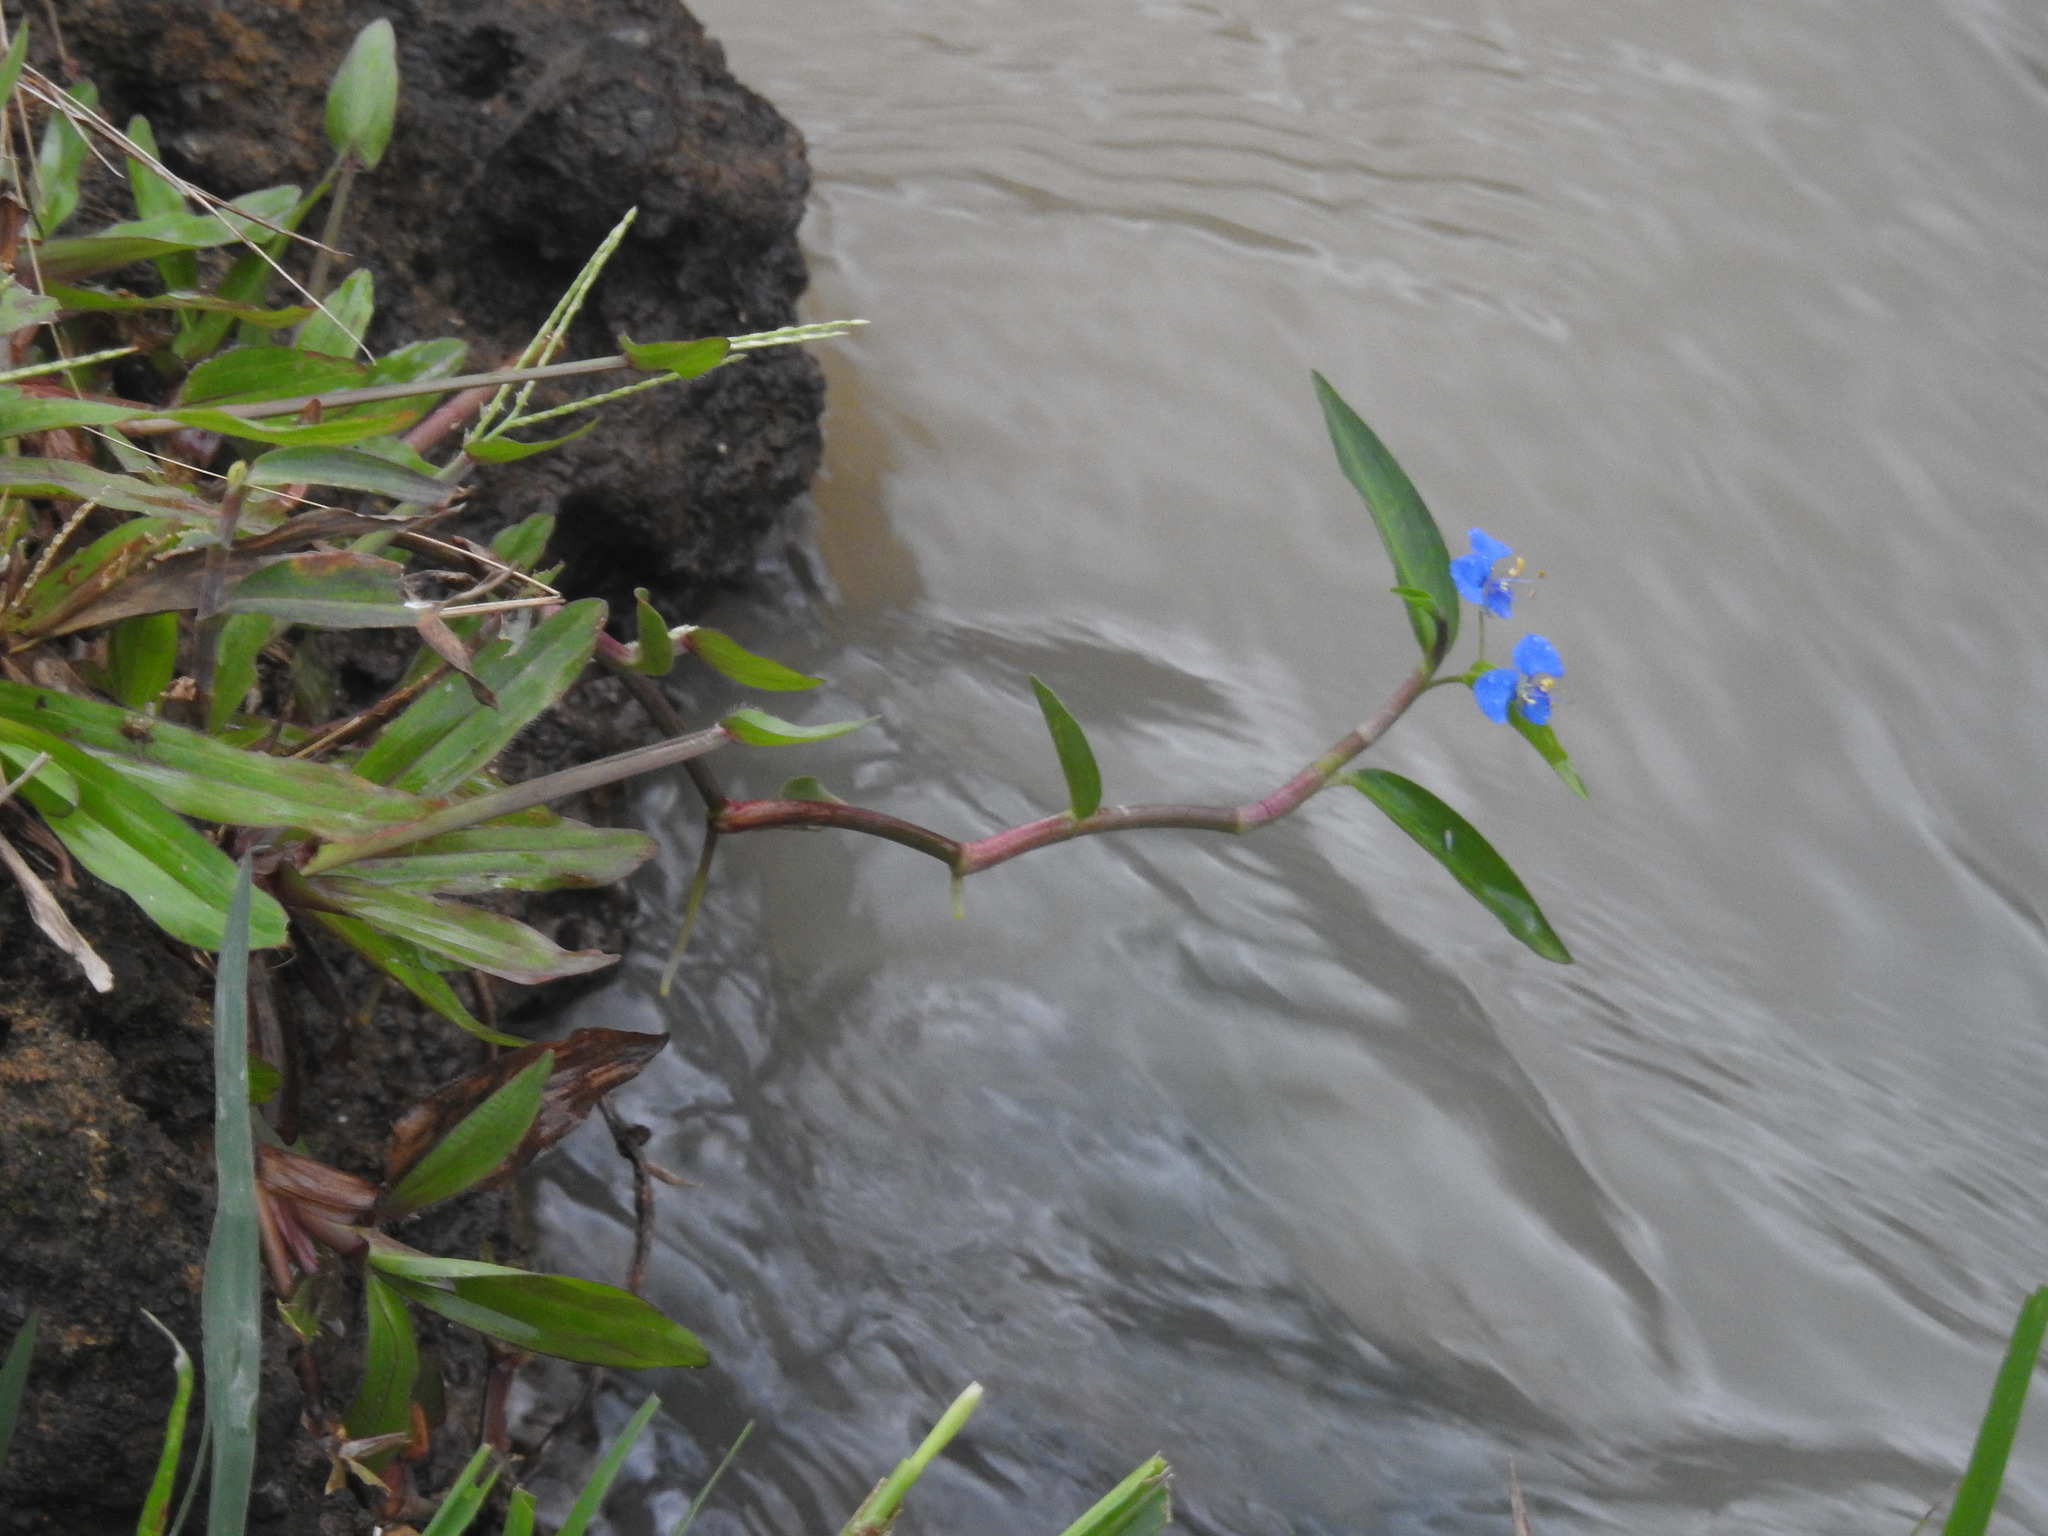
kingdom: Plantae
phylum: Tracheophyta
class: Liliopsida
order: Commelinales
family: Commelinaceae
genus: Commelina
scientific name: Commelina diffusa
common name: Climbing dayflower
